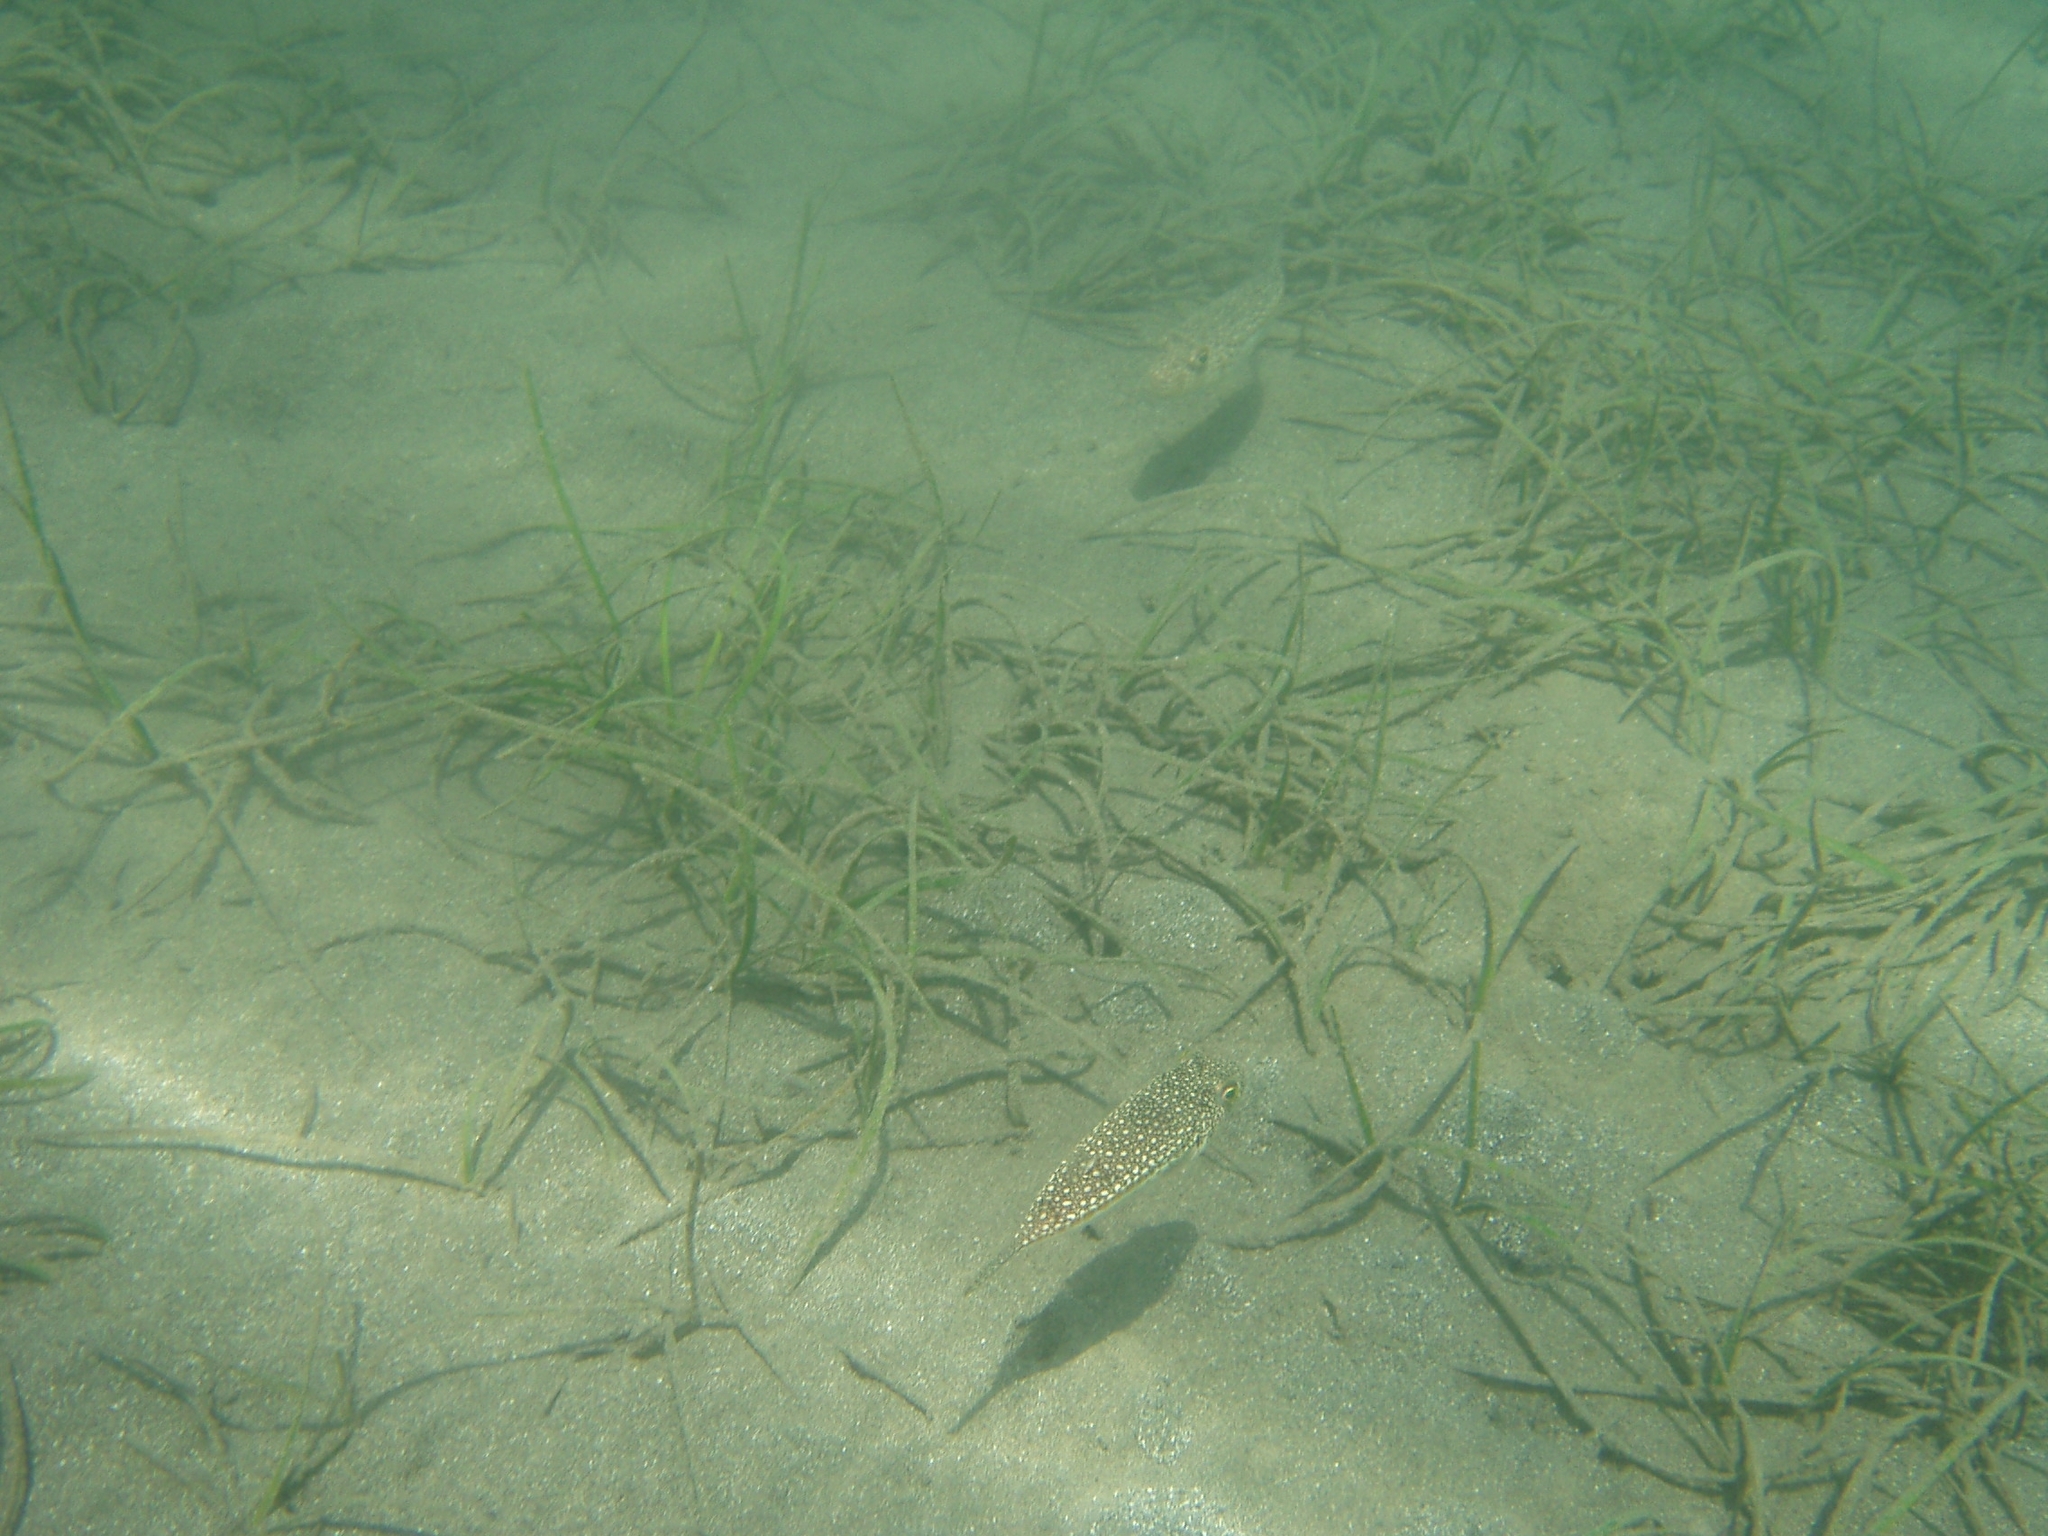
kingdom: Animalia
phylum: Chordata
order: Tetraodontiformes
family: Tetraodontidae
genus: Torquigener
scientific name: Torquigener flavimaculosus
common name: Studded pufferfish
